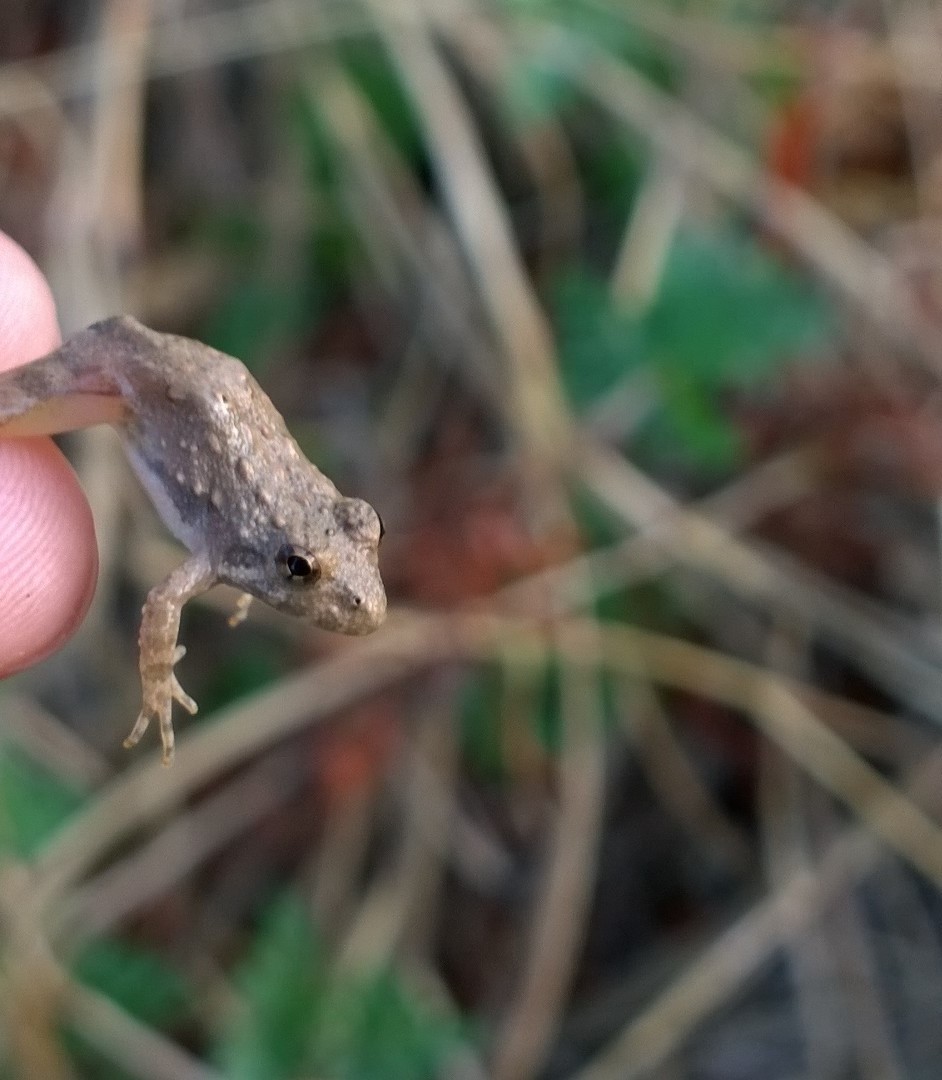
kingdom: Animalia
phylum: Chordata
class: Amphibia
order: Anura
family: Hylidae
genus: Acris
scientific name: Acris blanchardi
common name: Blanchard's cricket frog
